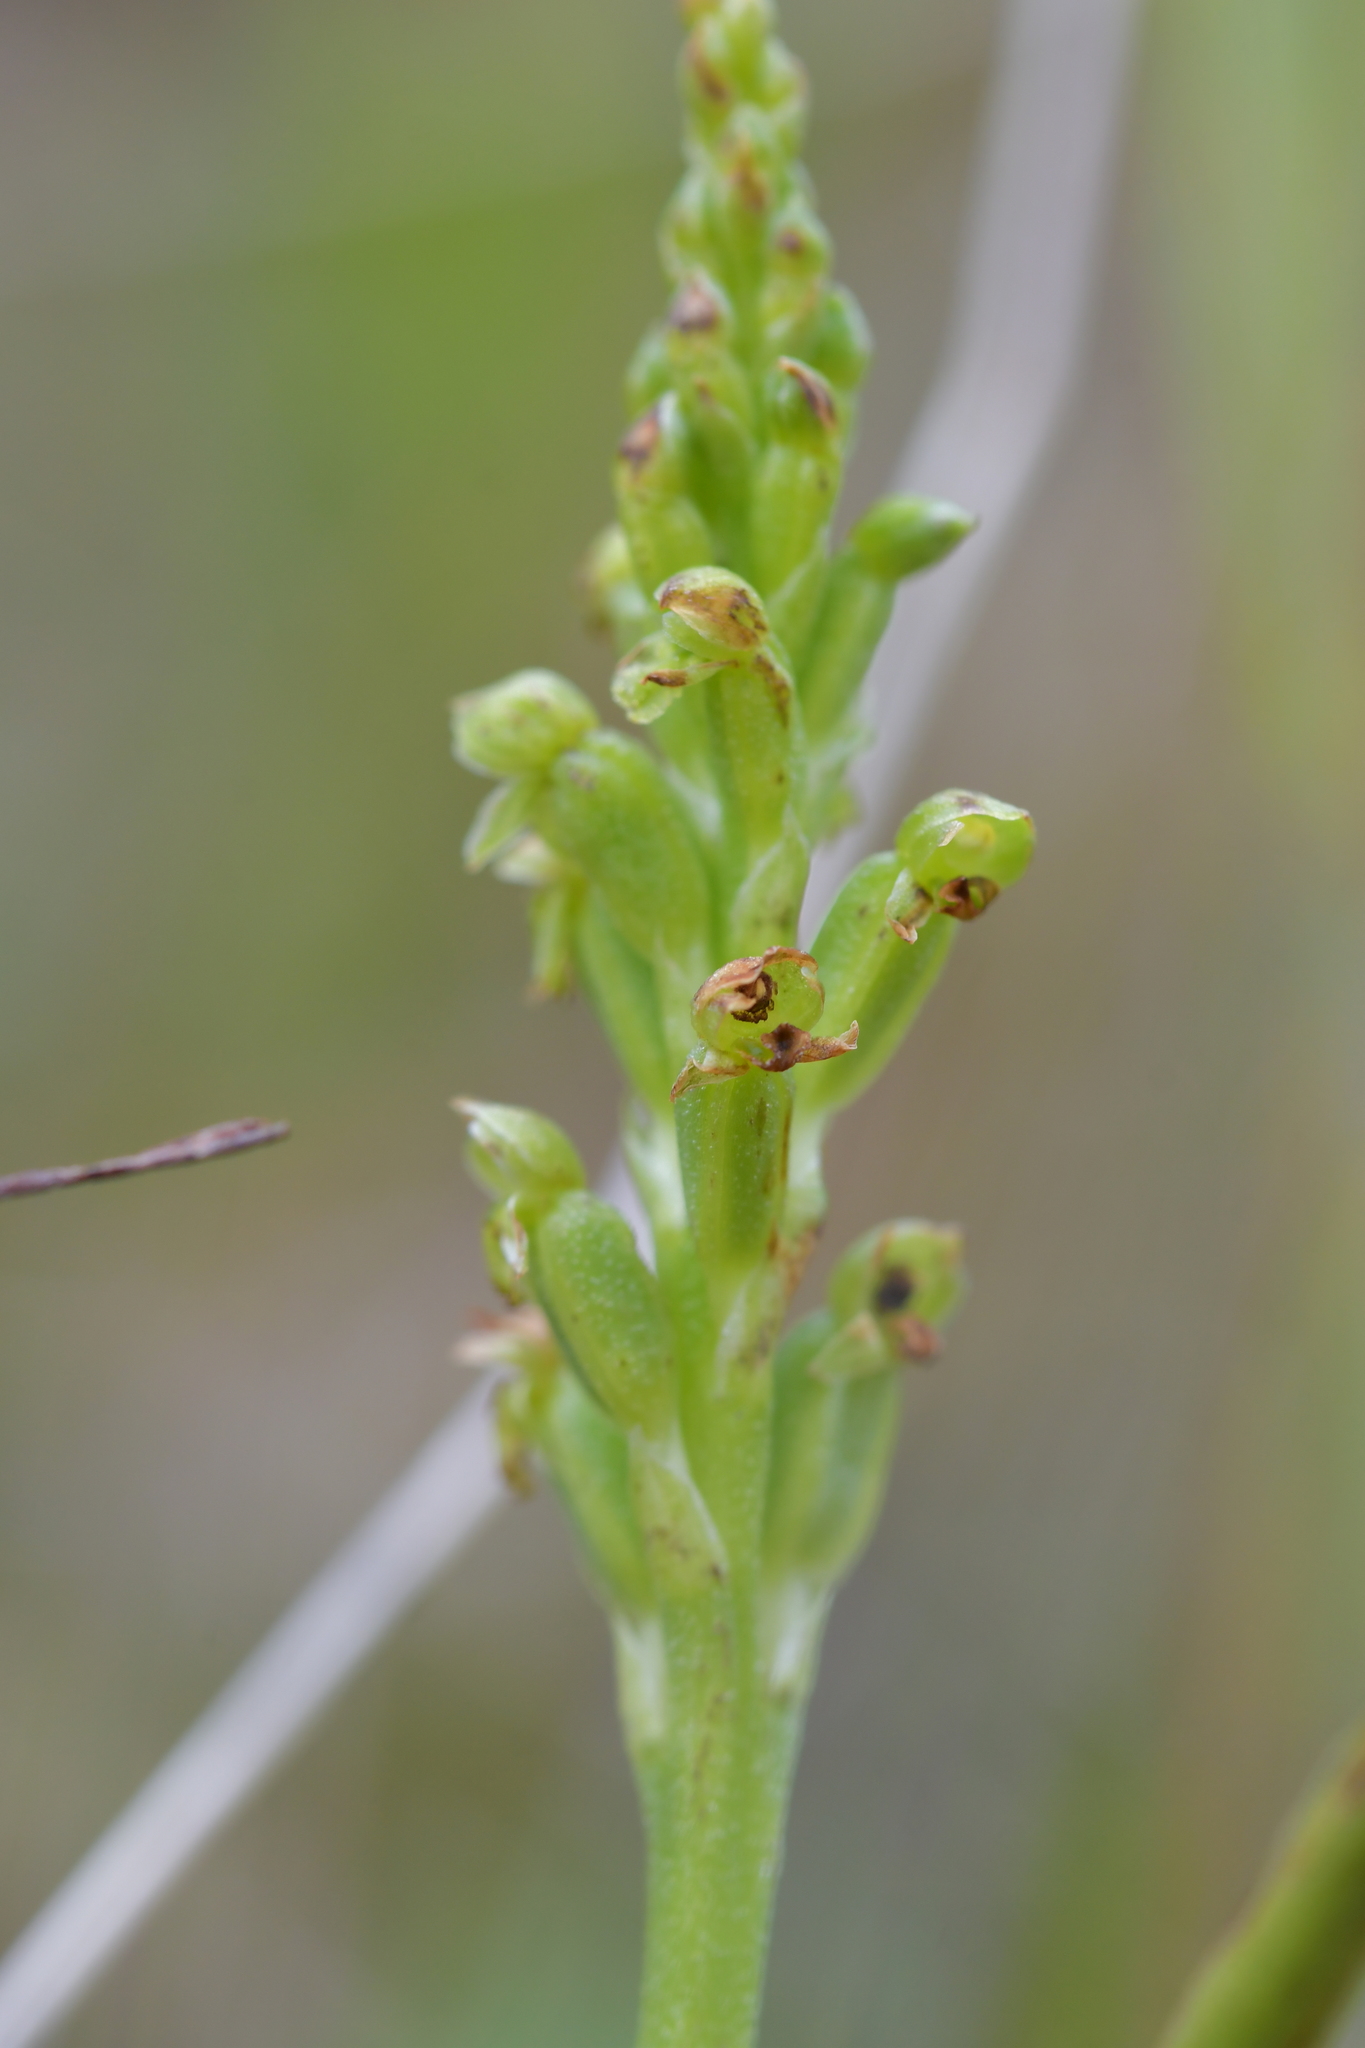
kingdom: Plantae
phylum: Tracheophyta
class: Liliopsida
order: Asparagales
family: Orchidaceae
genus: Microtis
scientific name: Microtis unifolia
